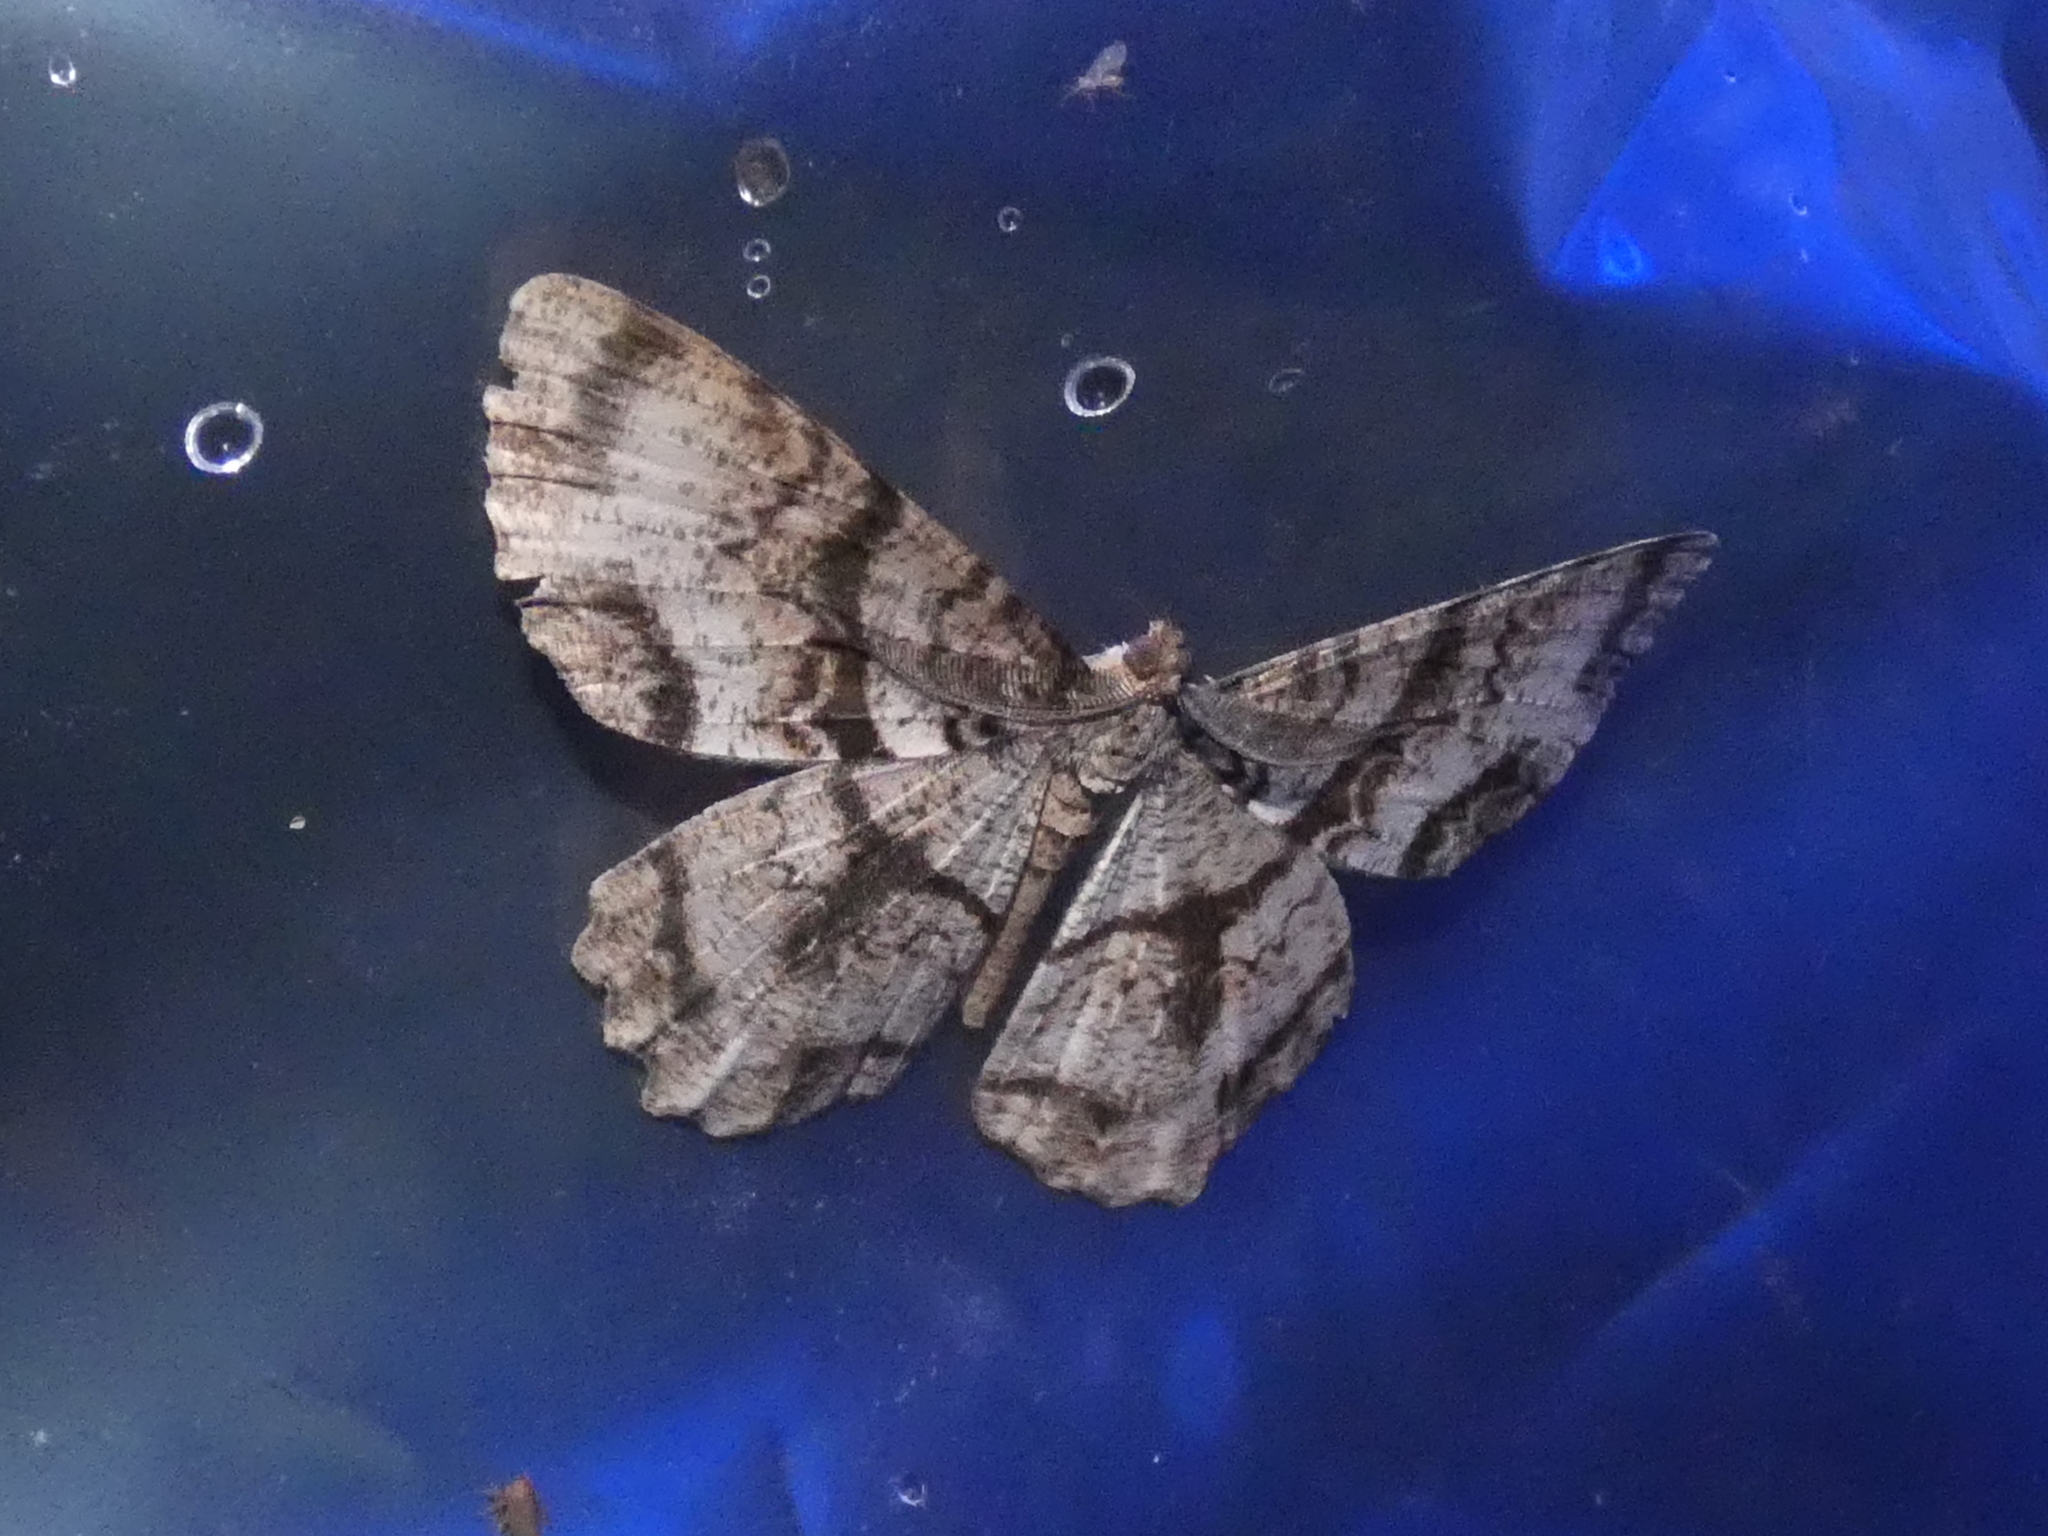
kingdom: Animalia
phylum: Arthropoda
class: Insecta
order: Lepidoptera
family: Geometridae
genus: Epimecis
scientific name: Epimecis hortaria
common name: Tulip-tree beauty
